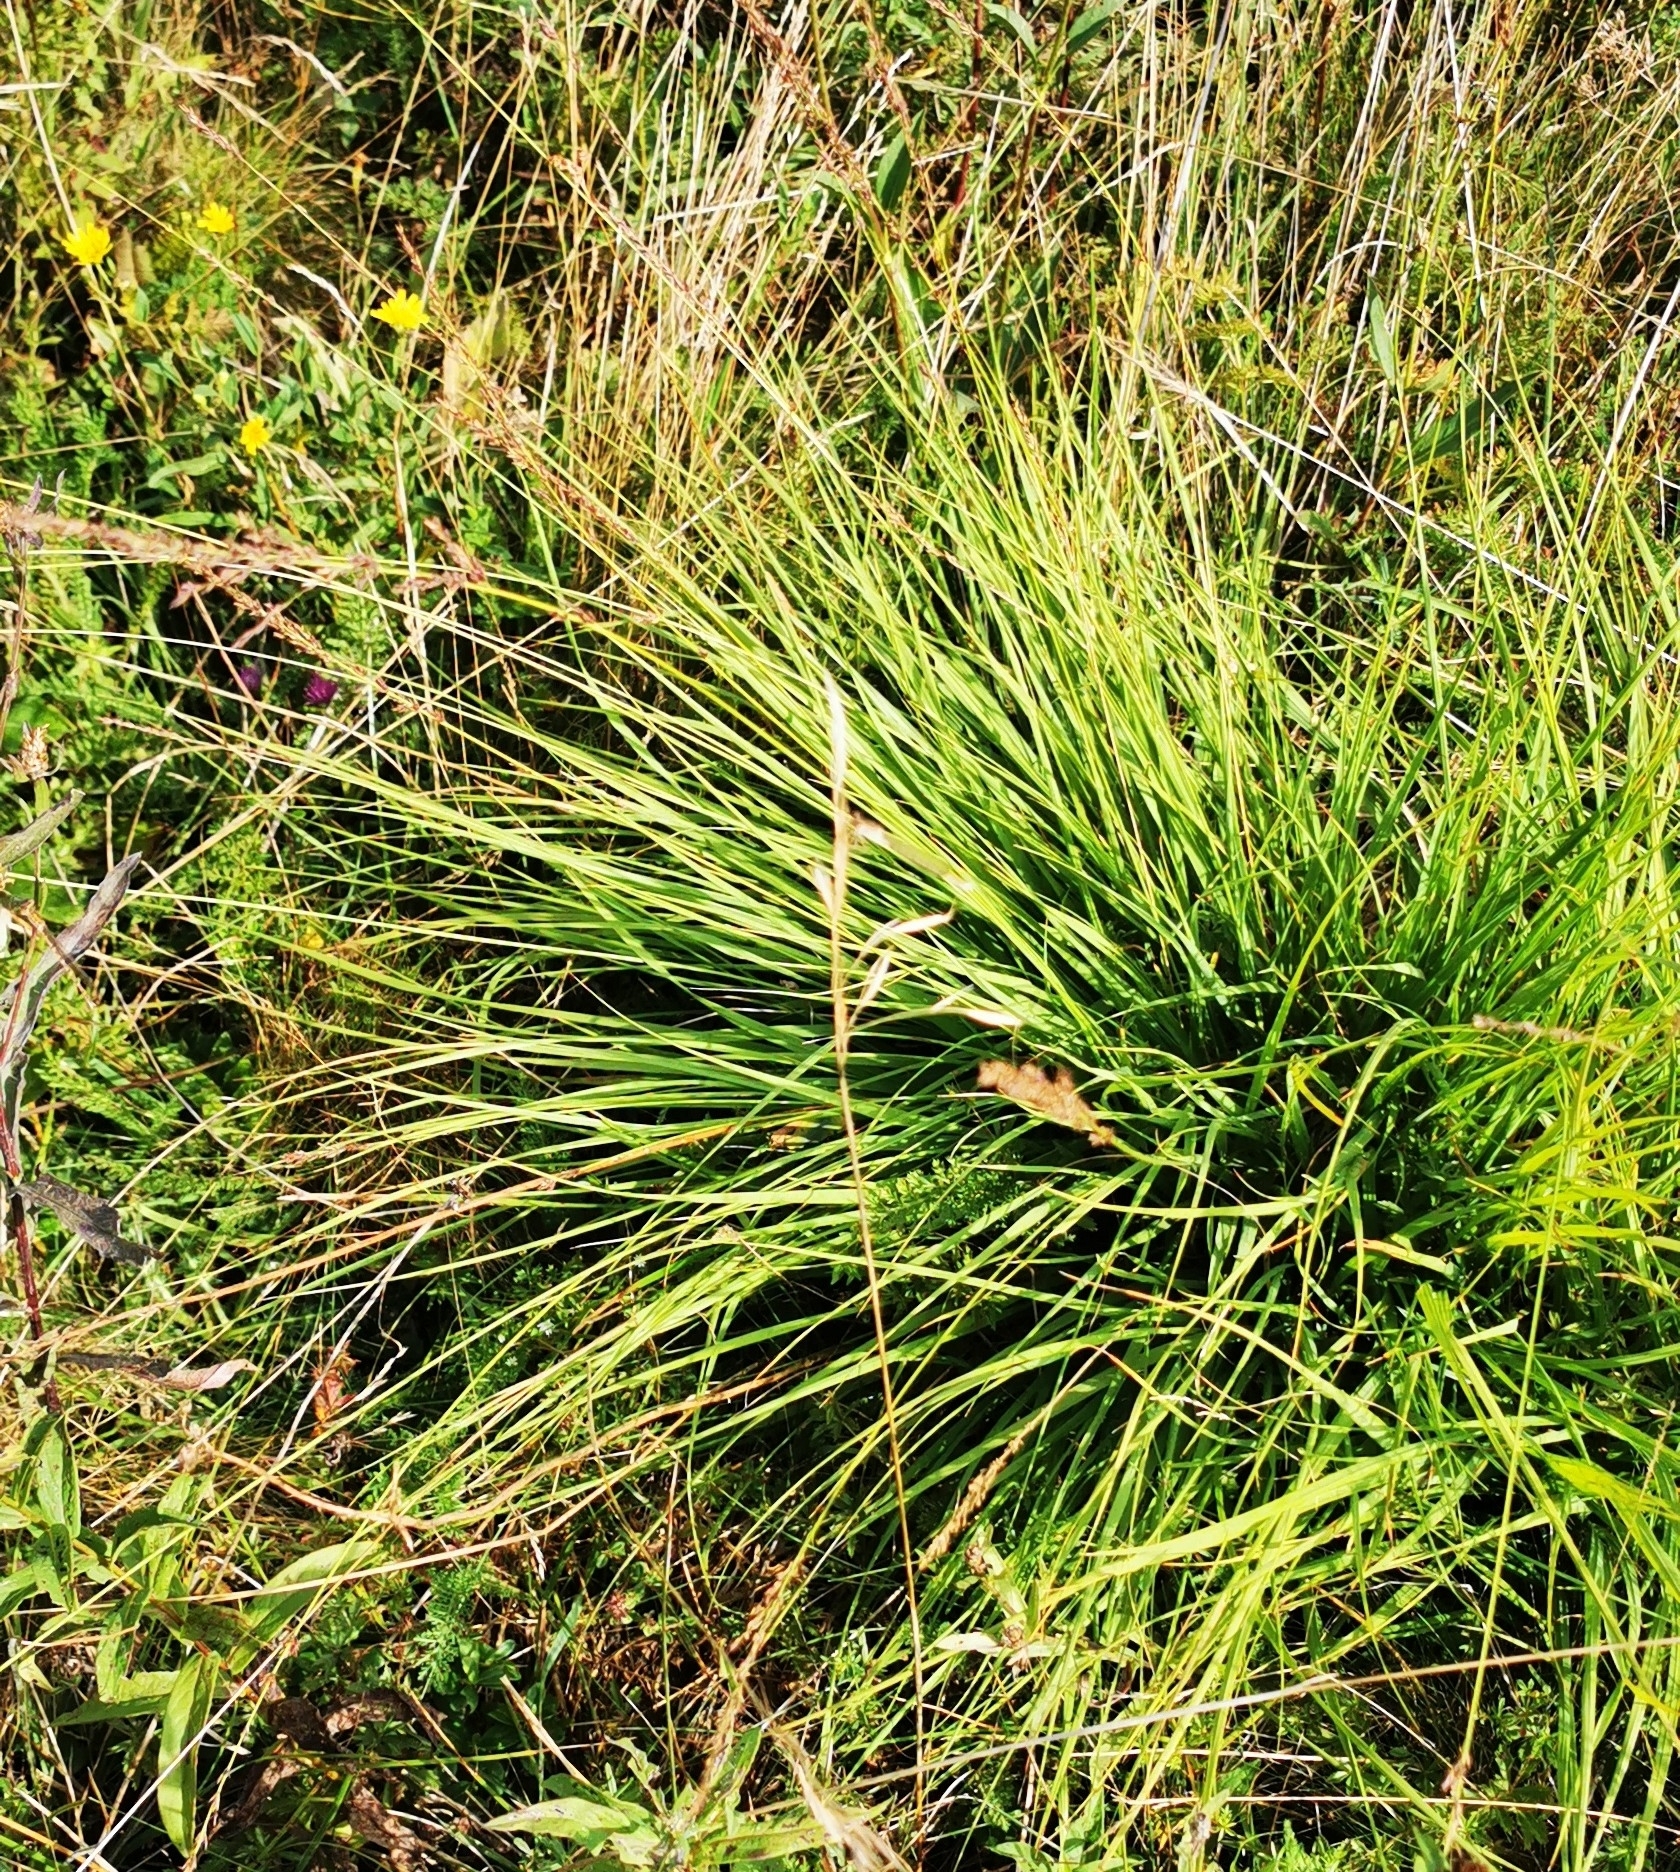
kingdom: Plantae
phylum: Tracheophyta
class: Liliopsida
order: Poales
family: Poaceae
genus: Molinia
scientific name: Molinia caerulea
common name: Purple moor-grass
